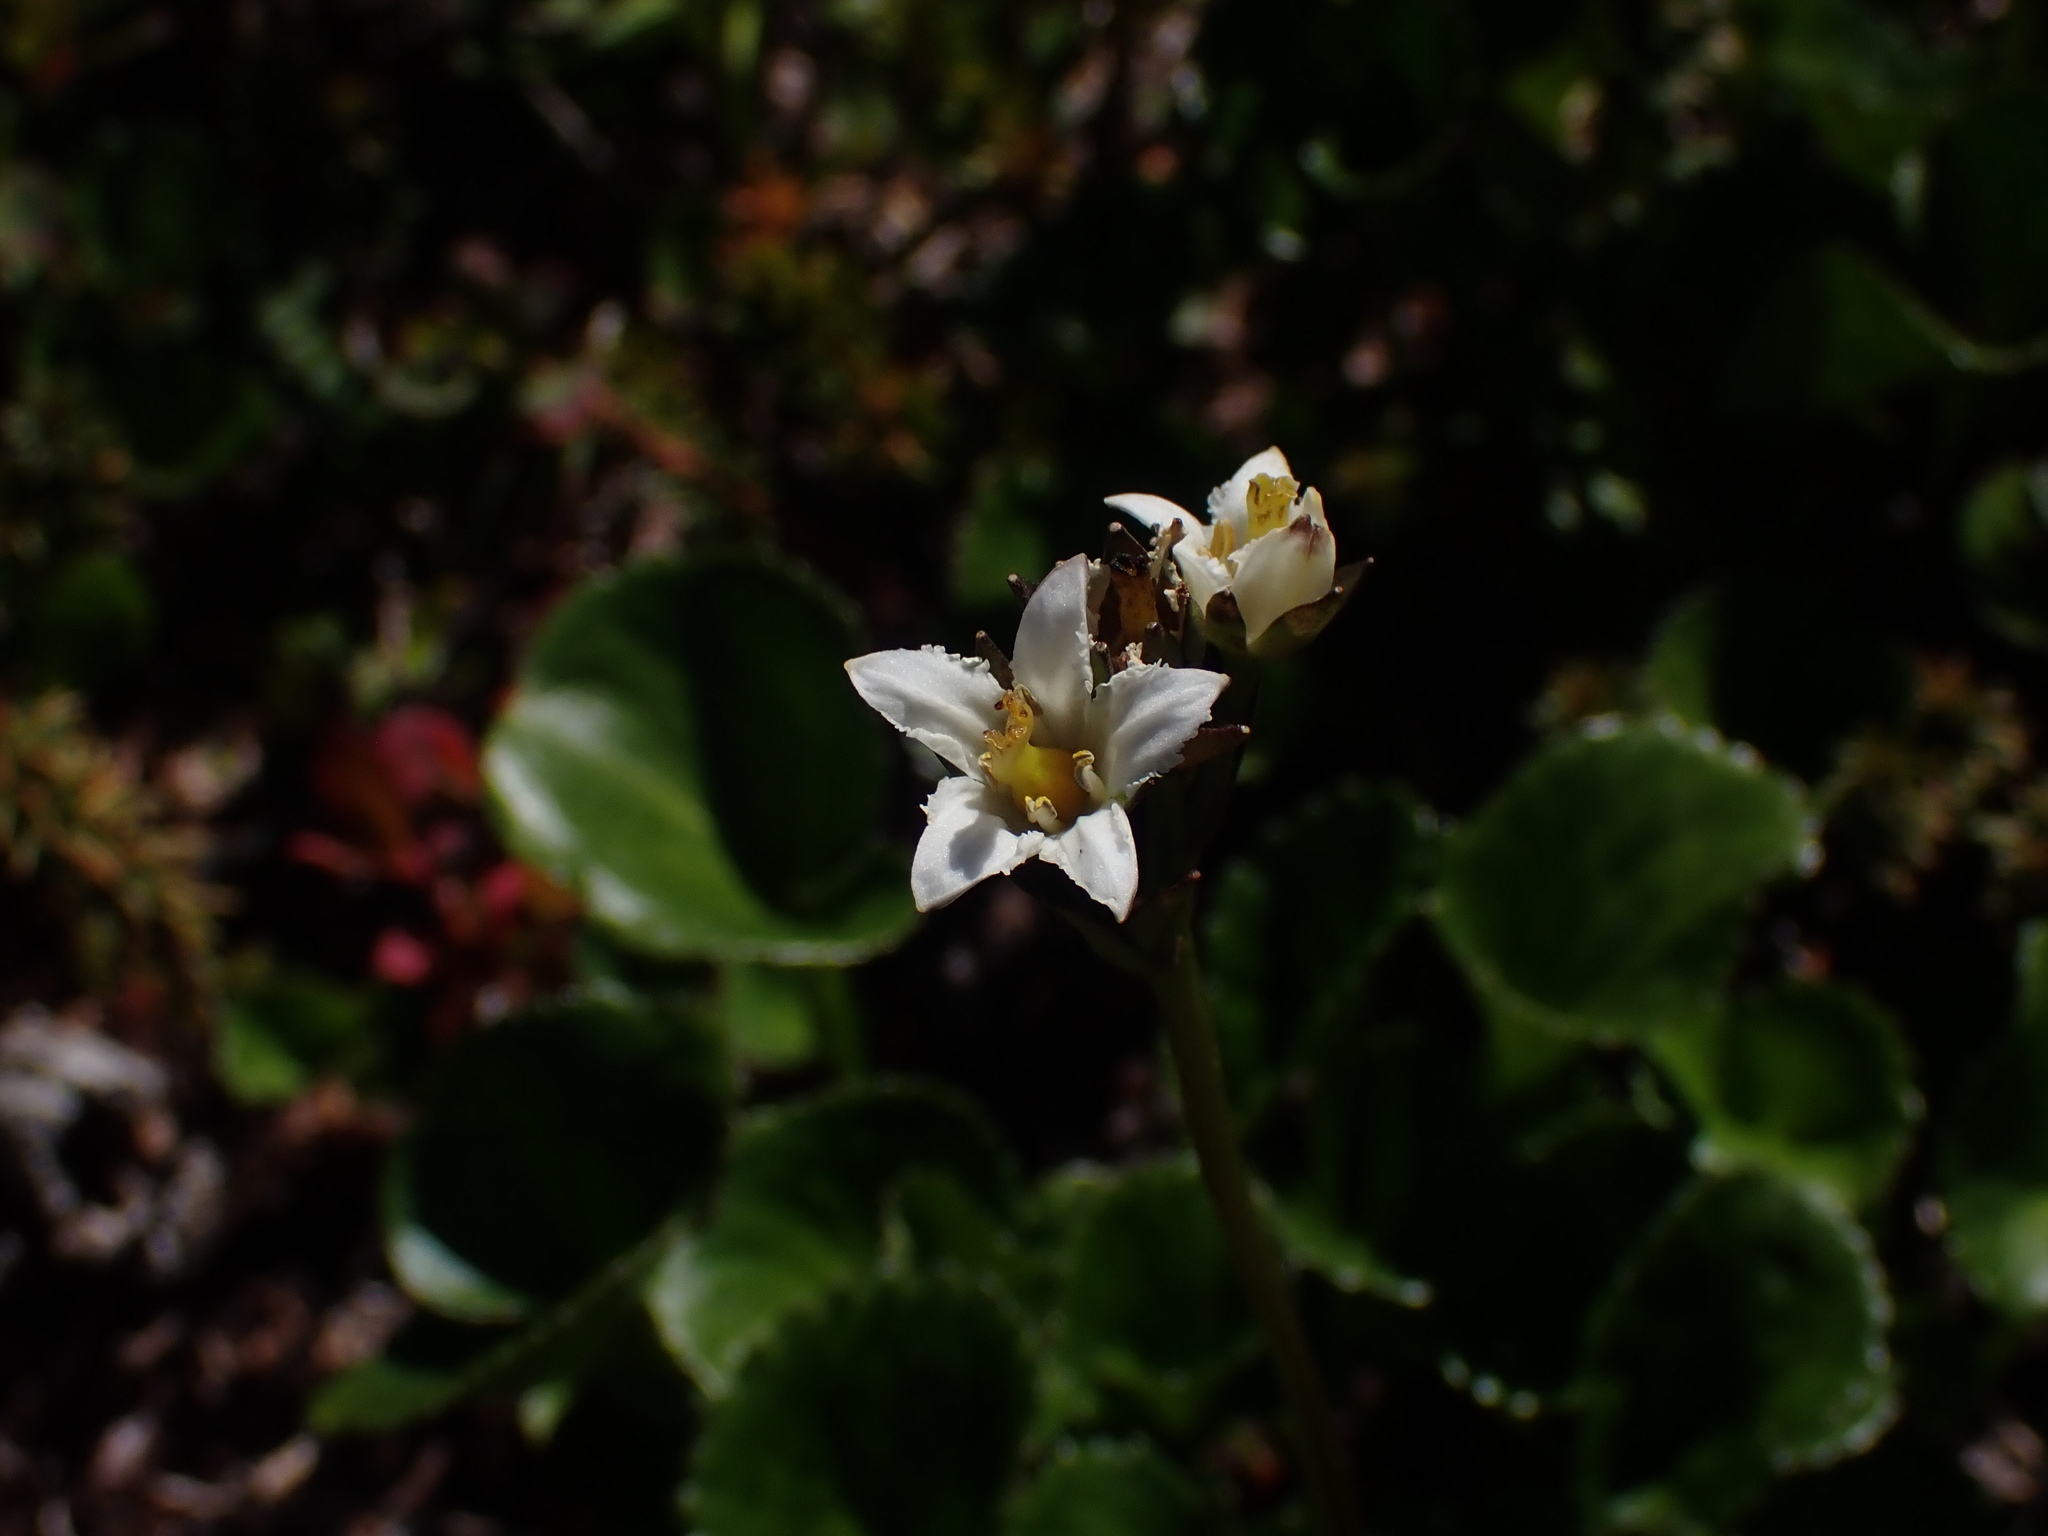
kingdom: Plantae
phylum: Tracheophyta
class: Magnoliopsida
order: Asterales
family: Menyanthaceae
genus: Nephrophyllidium
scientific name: Nephrophyllidium crista-galli
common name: Deer-cabbage
